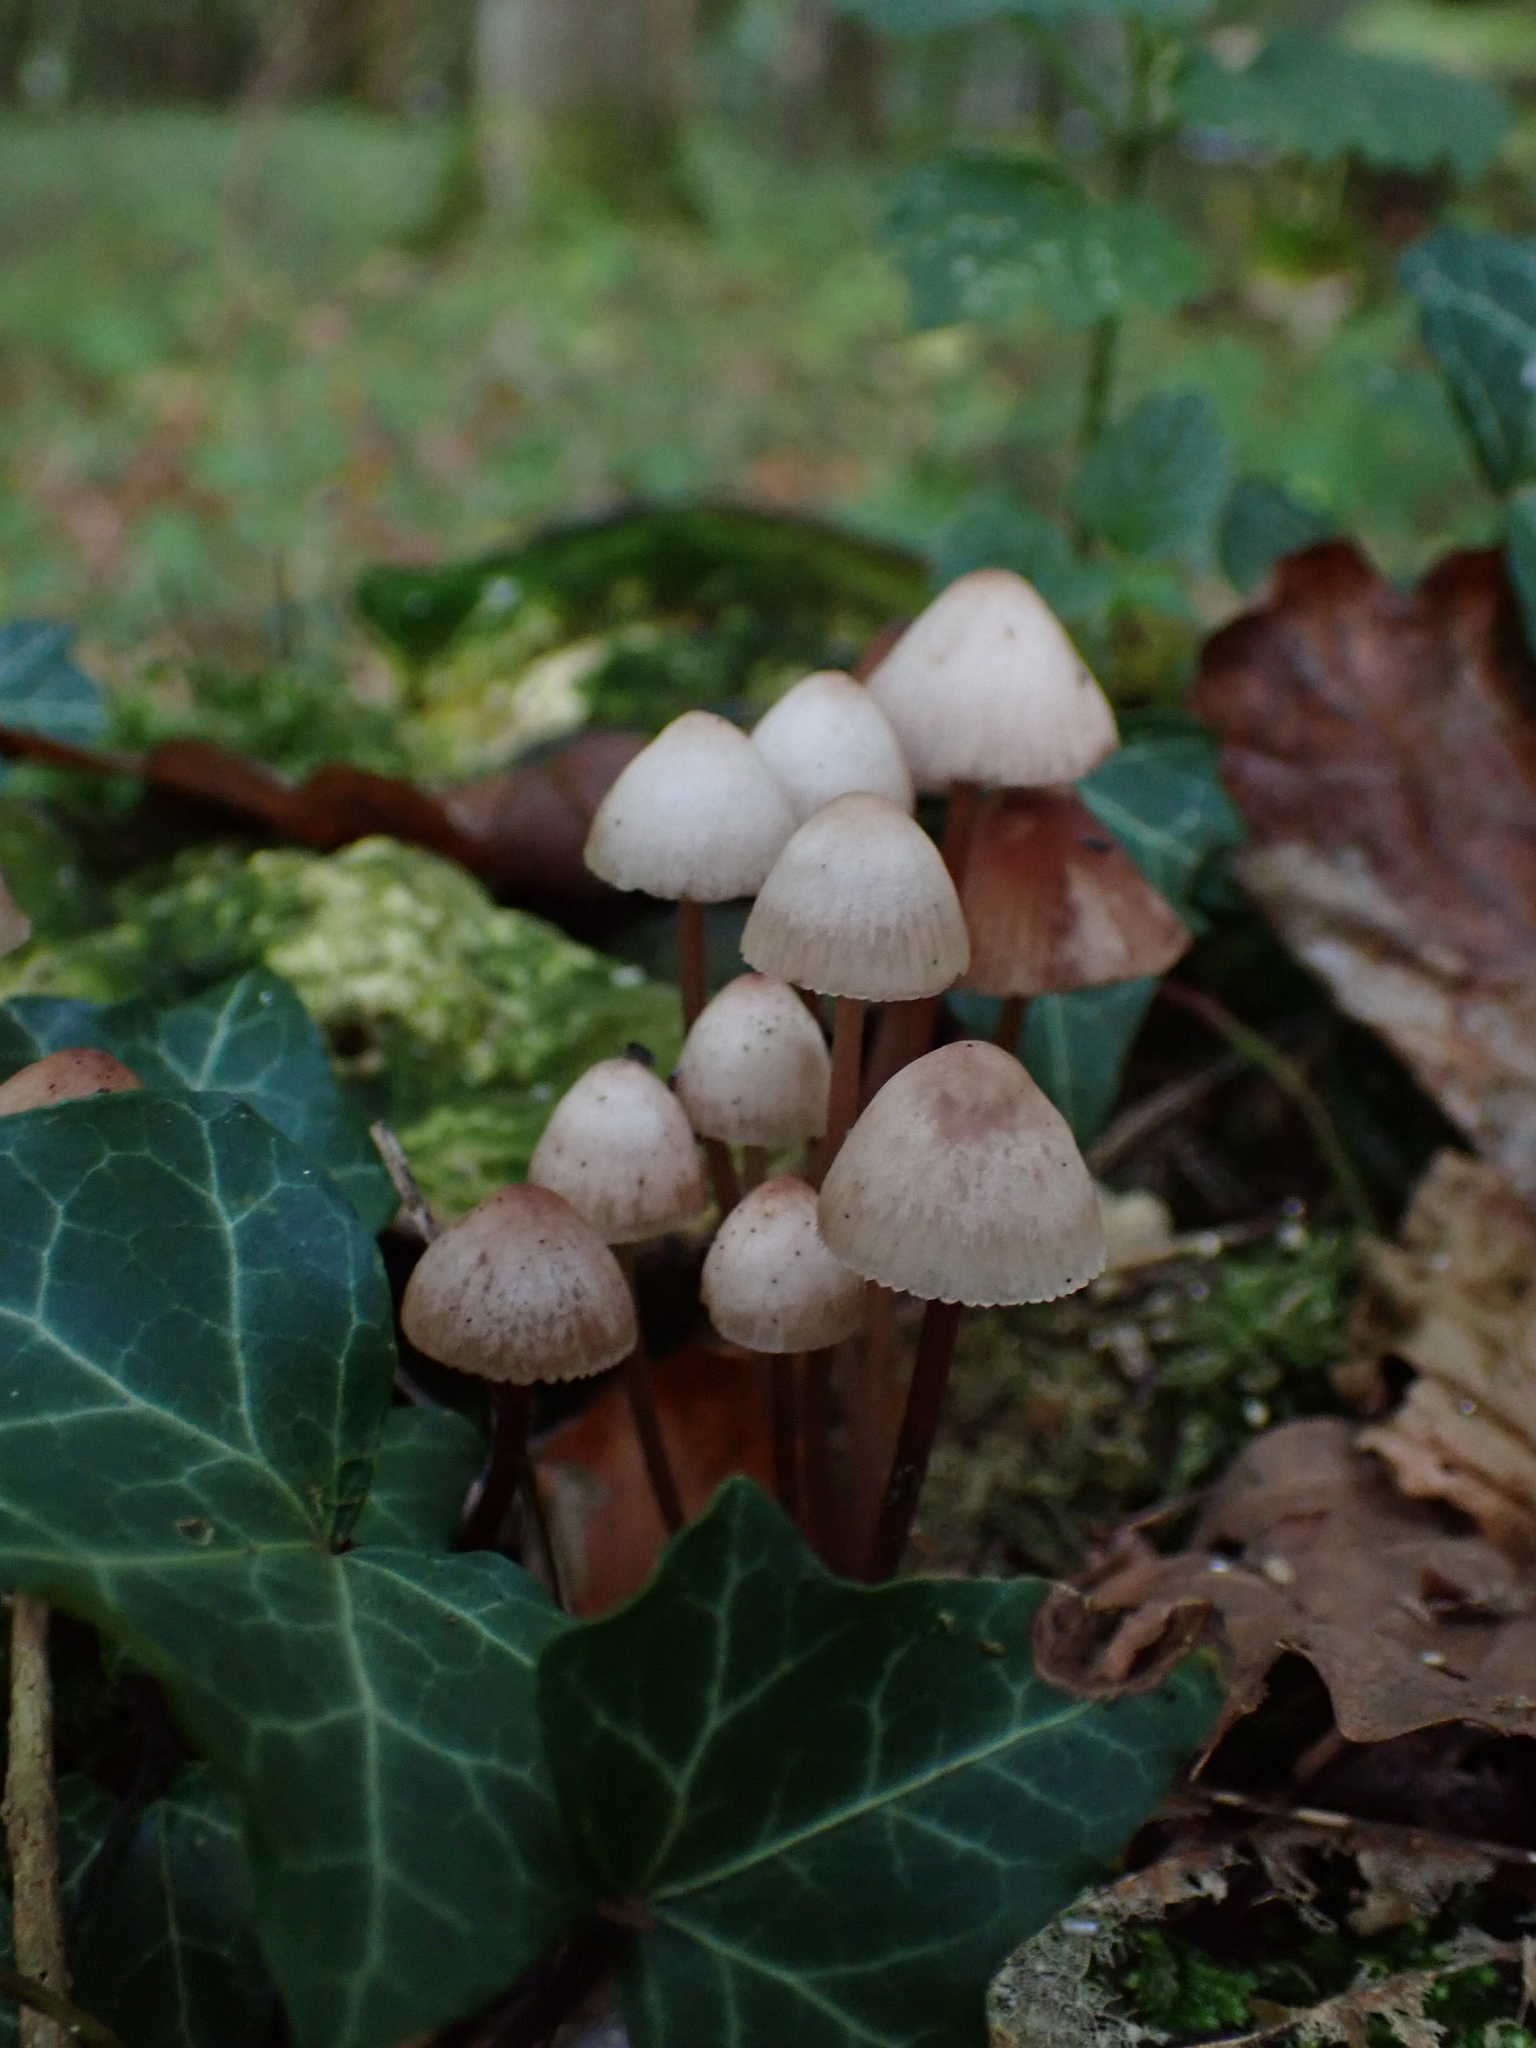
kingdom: Fungi
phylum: Basidiomycota
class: Agaricomycetes
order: Agaricales
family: Mycenaceae
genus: Mycena
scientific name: Mycena haematopus
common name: Burgundydrop bonnet
